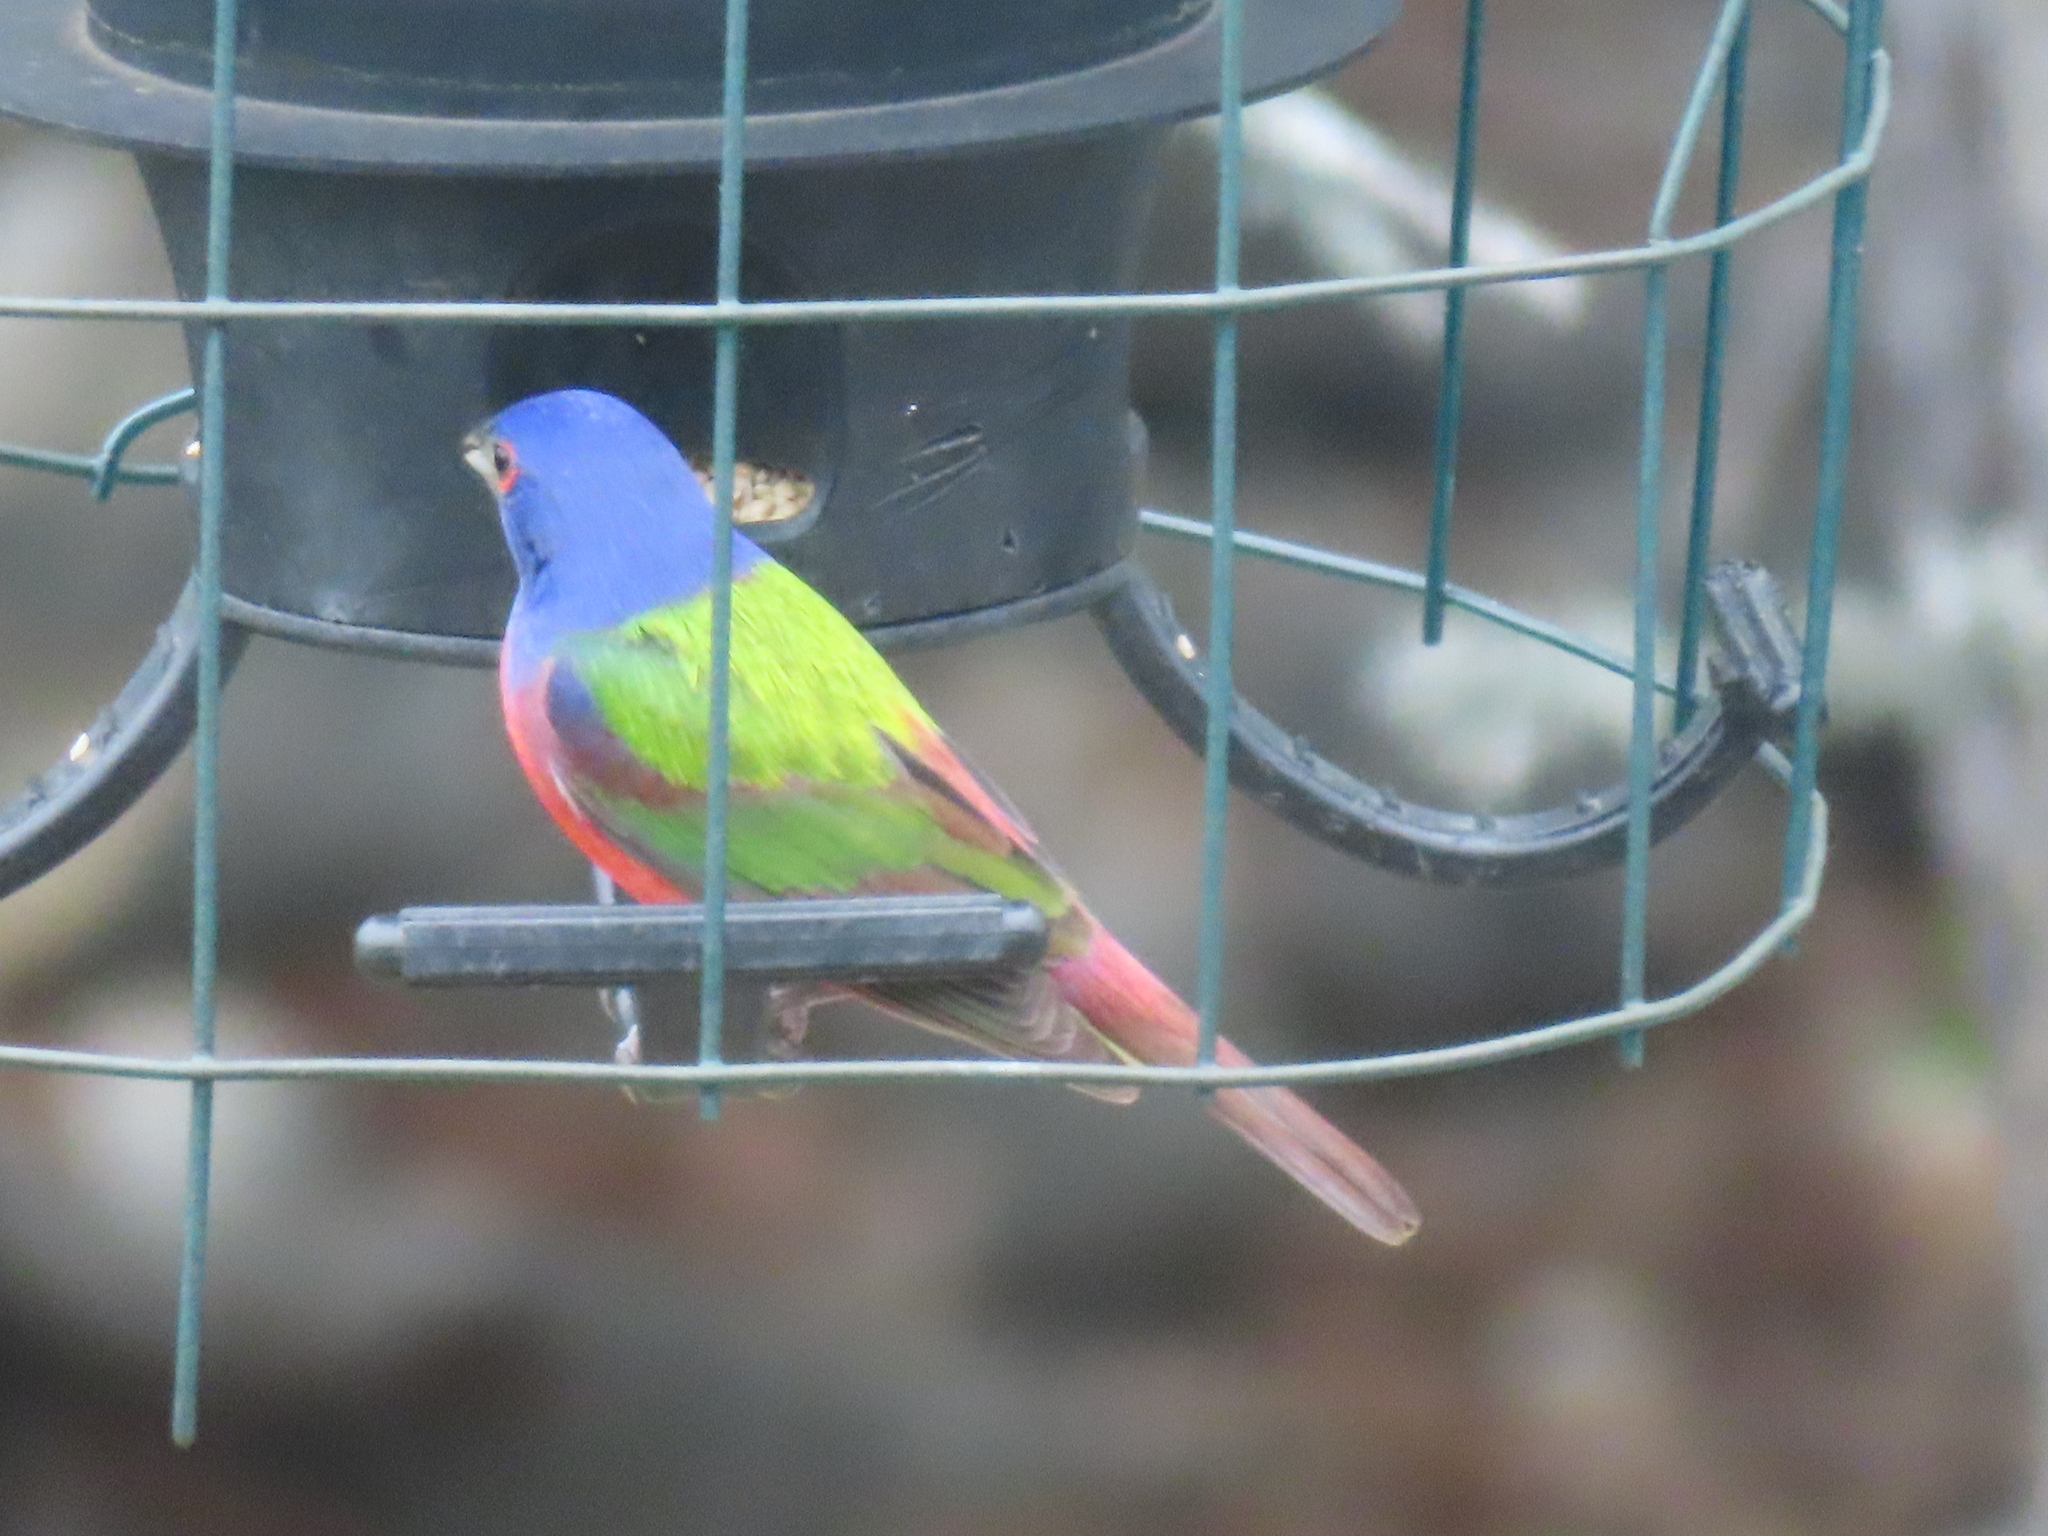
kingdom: Animalia
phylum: Chordata
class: Aves
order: Passeriformes
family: Cardinalidae
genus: Passerina
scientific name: Passerina ciris
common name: Painted bunting
